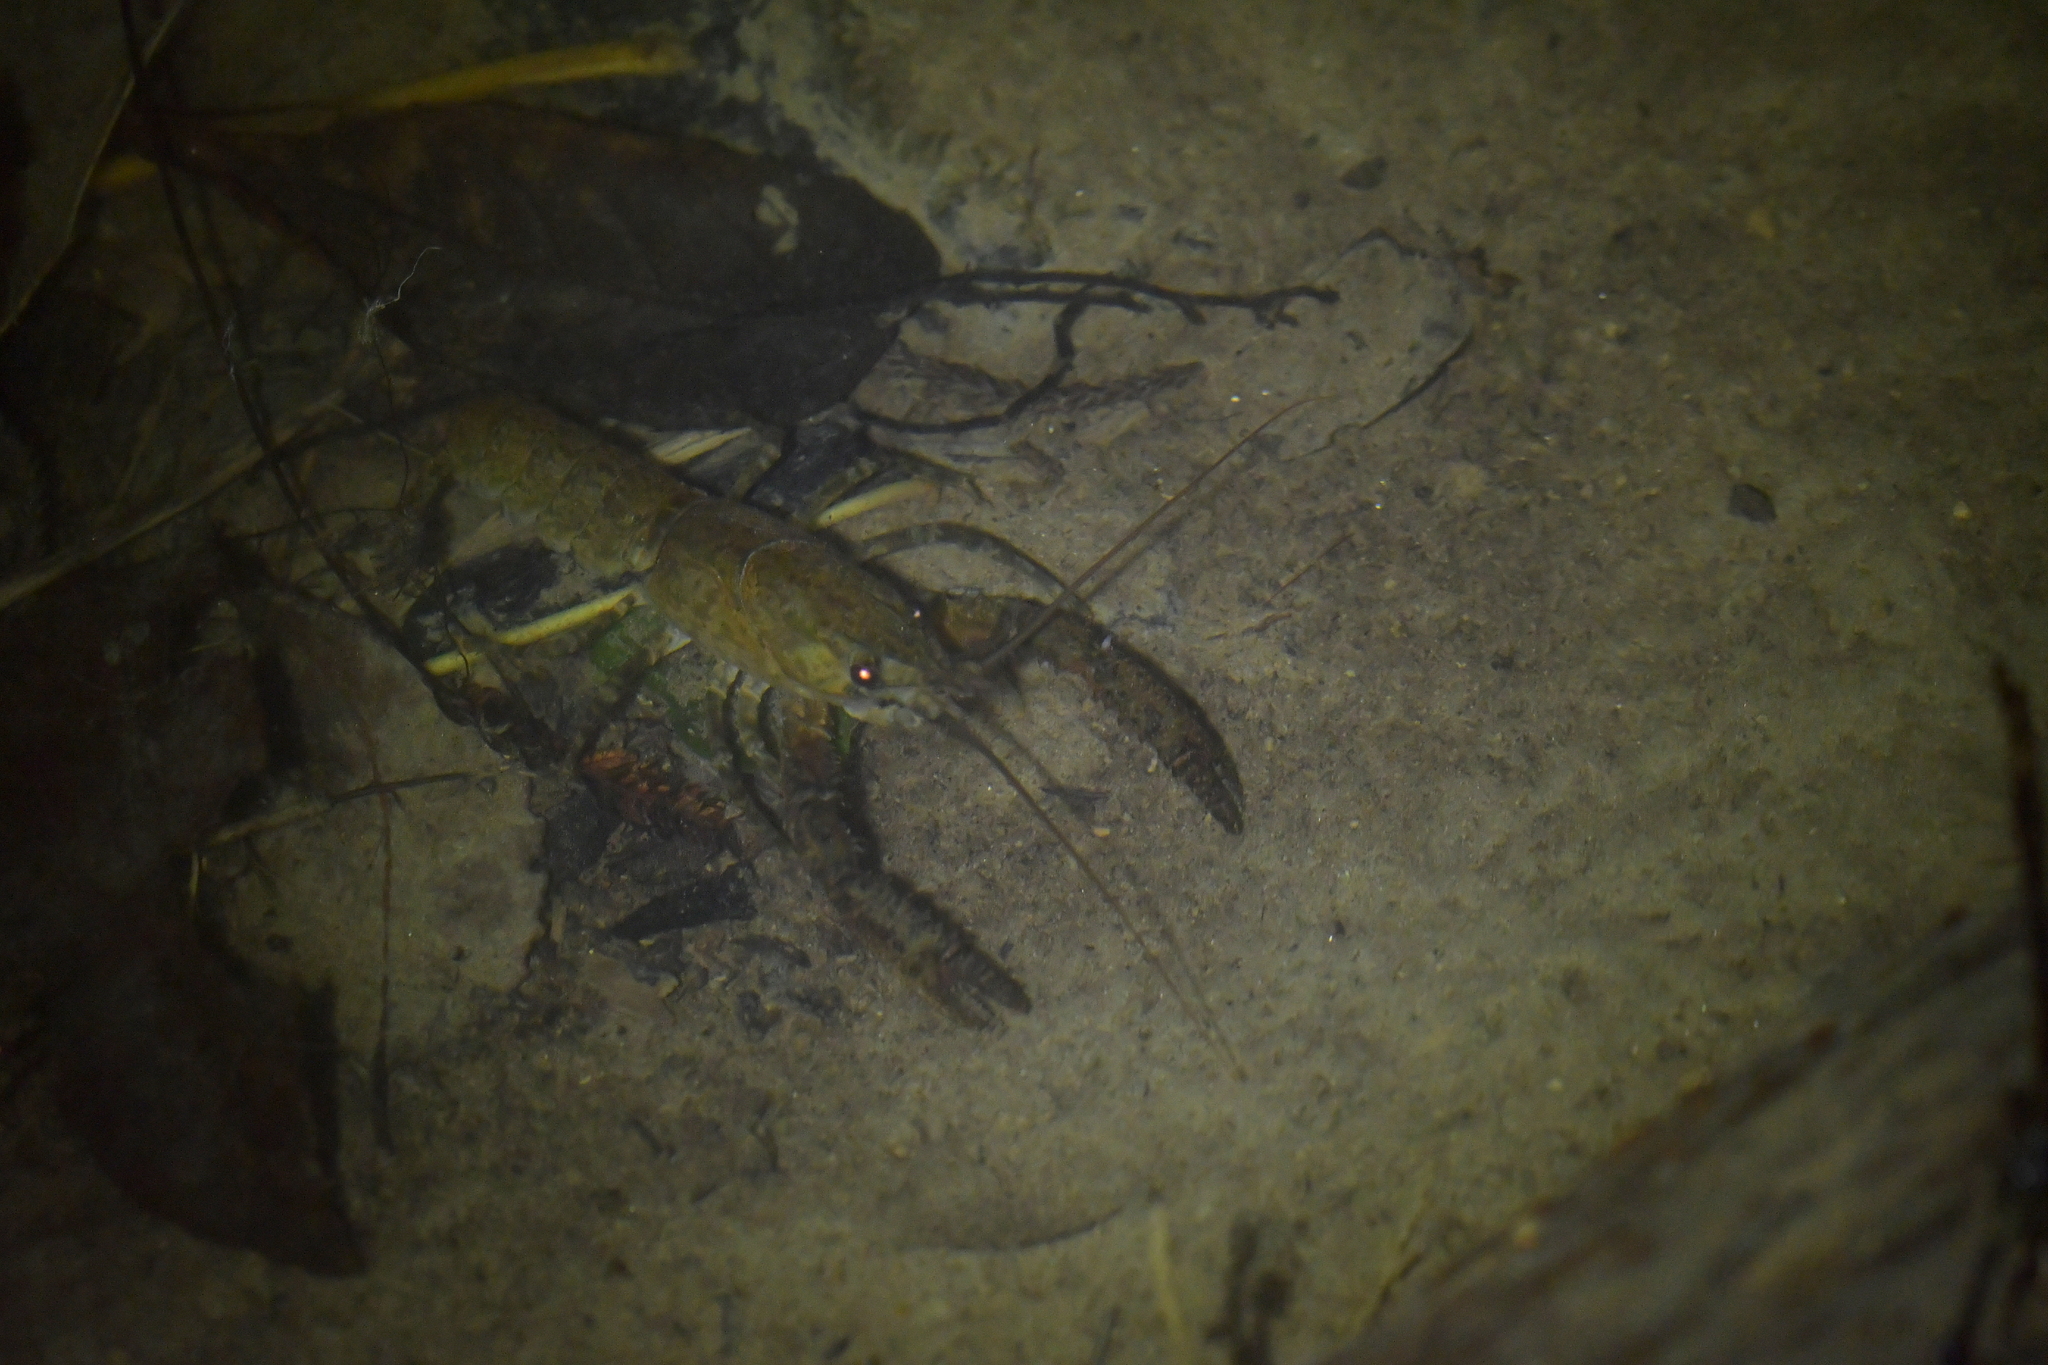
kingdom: Animalia
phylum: Arthropoda
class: Malacostraca
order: Decapoda
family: Parastacidae
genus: Paranephrops
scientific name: Paranephrops planifrons
